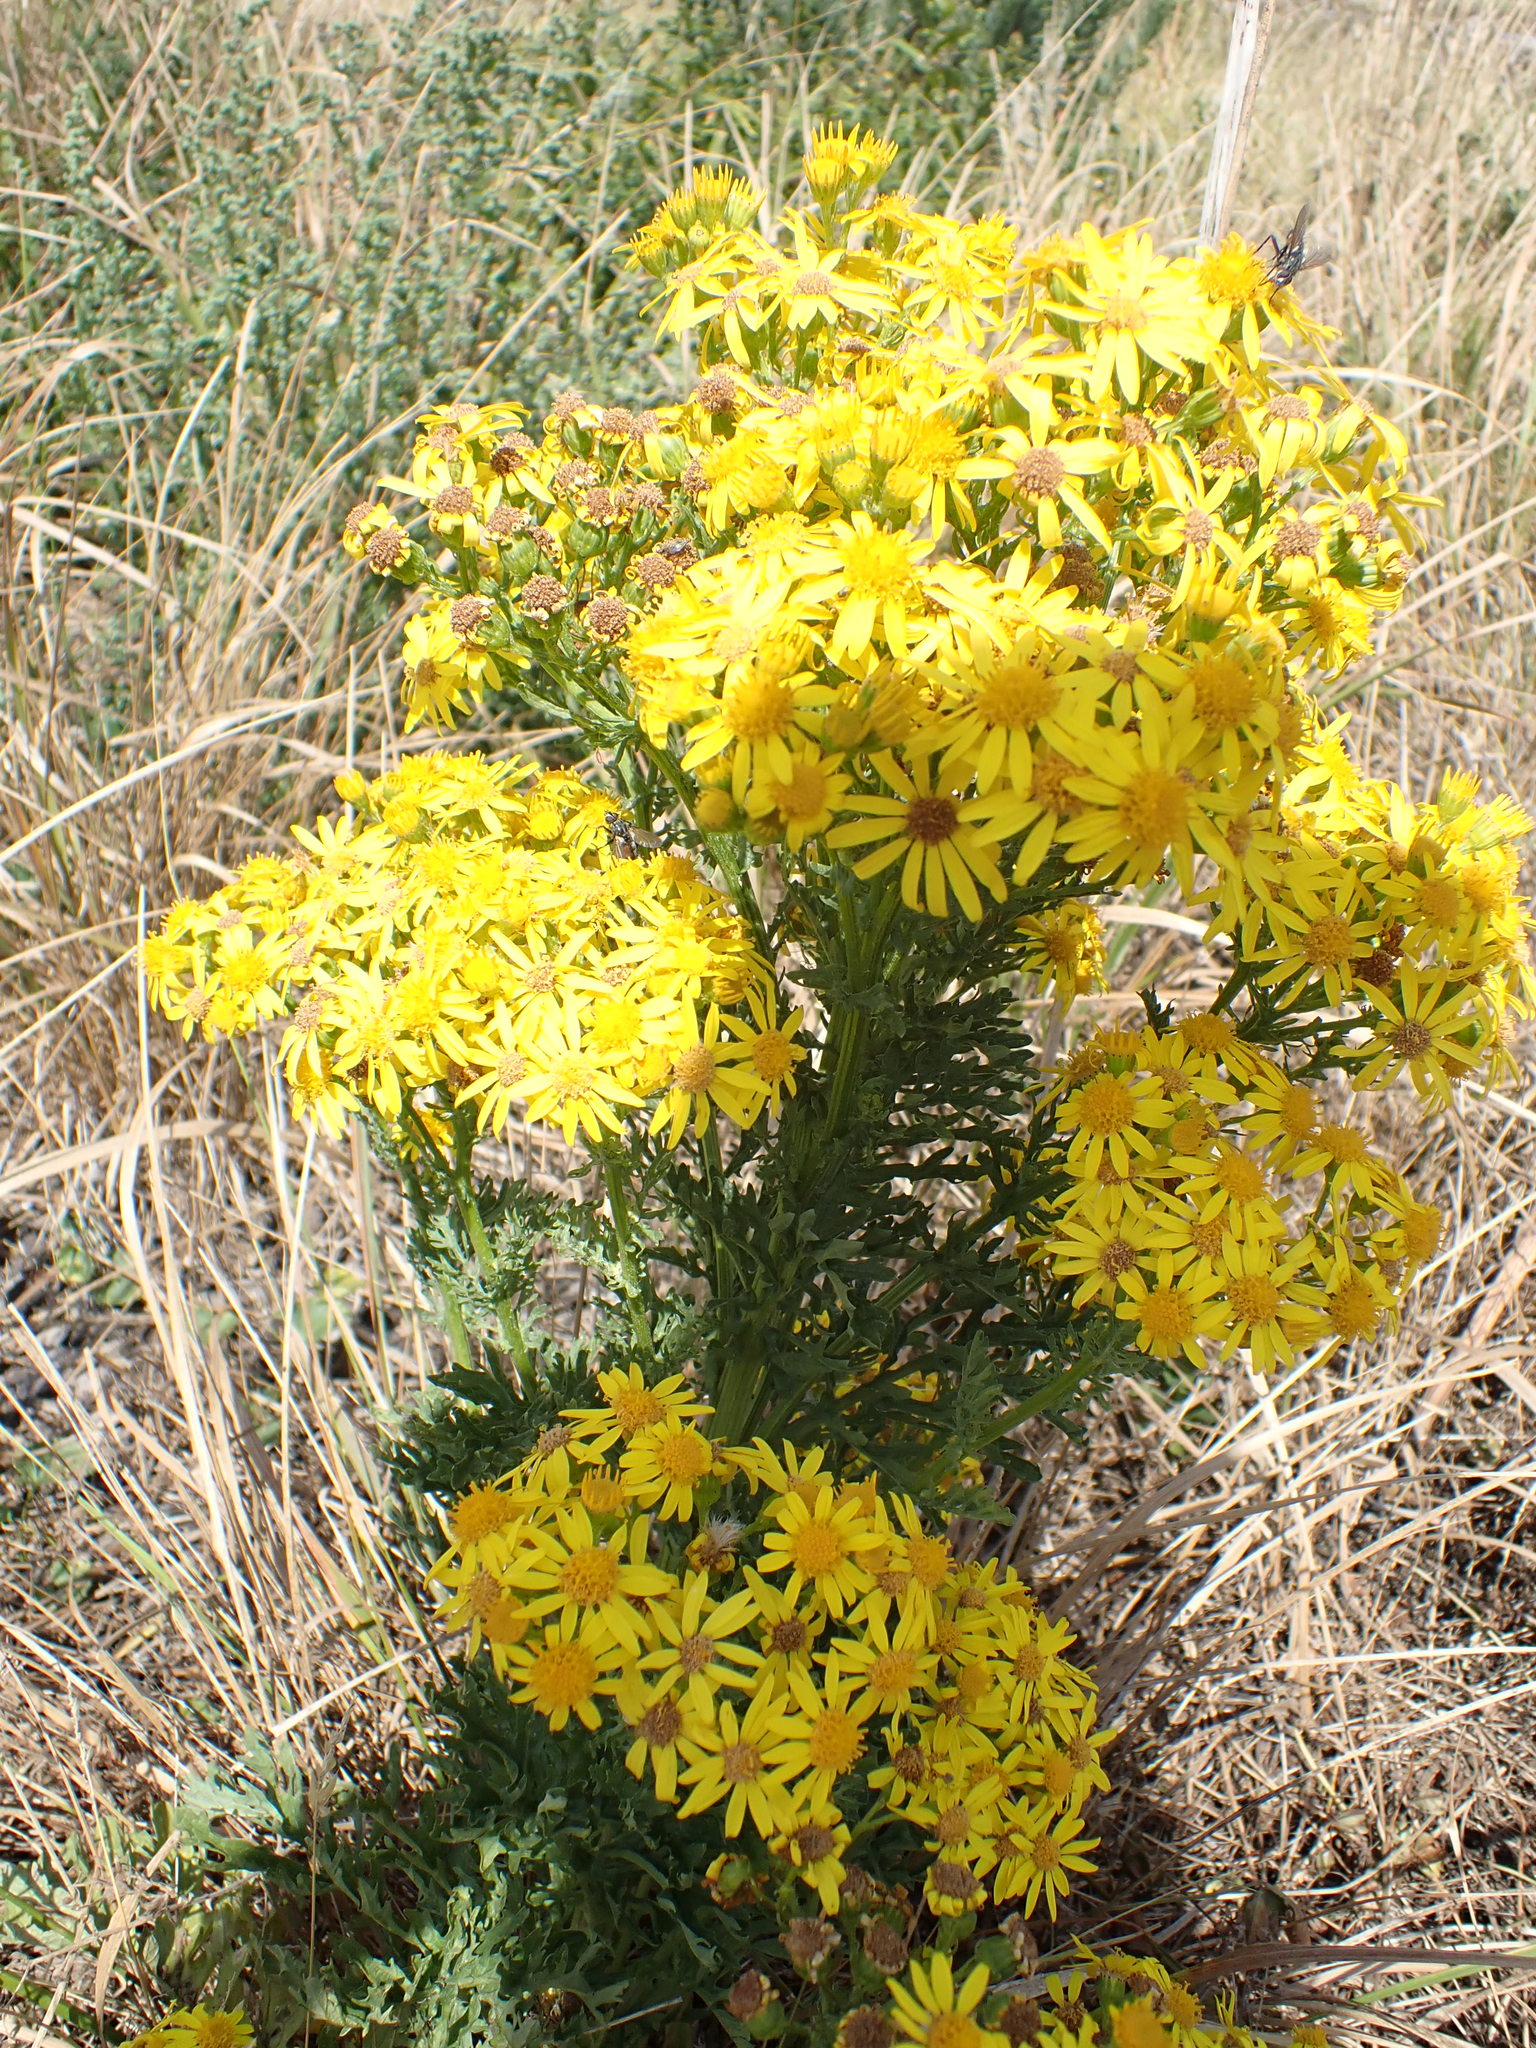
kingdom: Plantae
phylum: Tracheophyta
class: Magnoliopsida
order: Asterales
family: Asteraceae
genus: Jacobaea
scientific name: Jacobaea vulgaris
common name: Stinking willie
